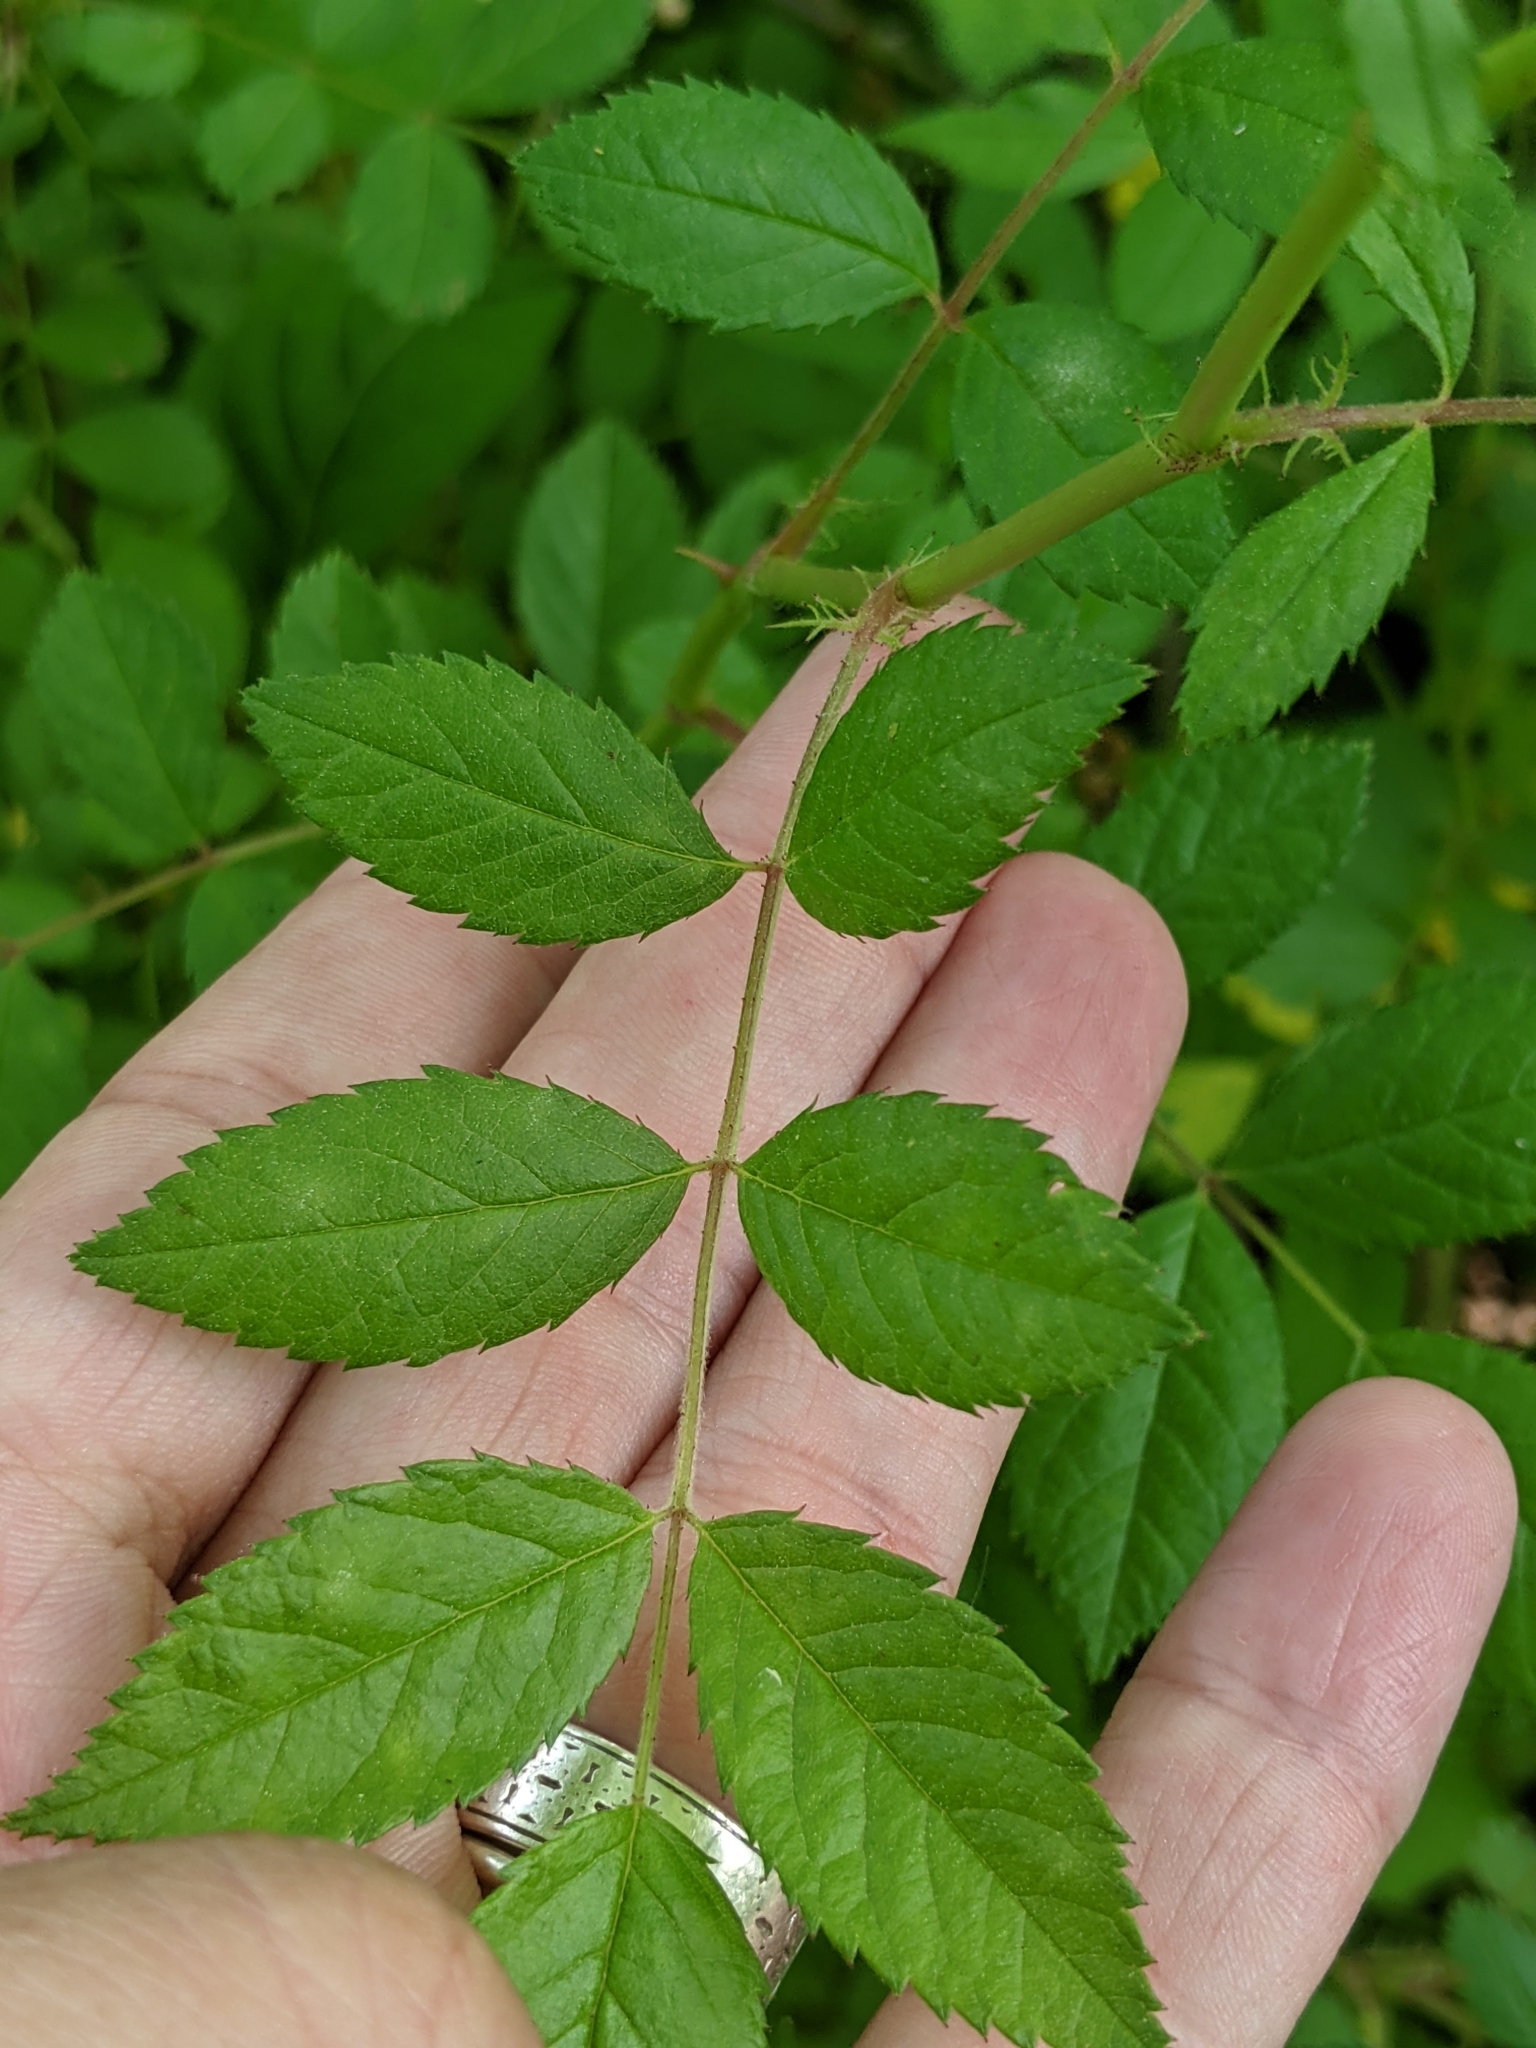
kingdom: Plantae
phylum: Tracheophyta
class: Magnoliopsida
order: Rosales
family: Rosaceae
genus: Rosa
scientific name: Rosa multiflora
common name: Multiflora rose
